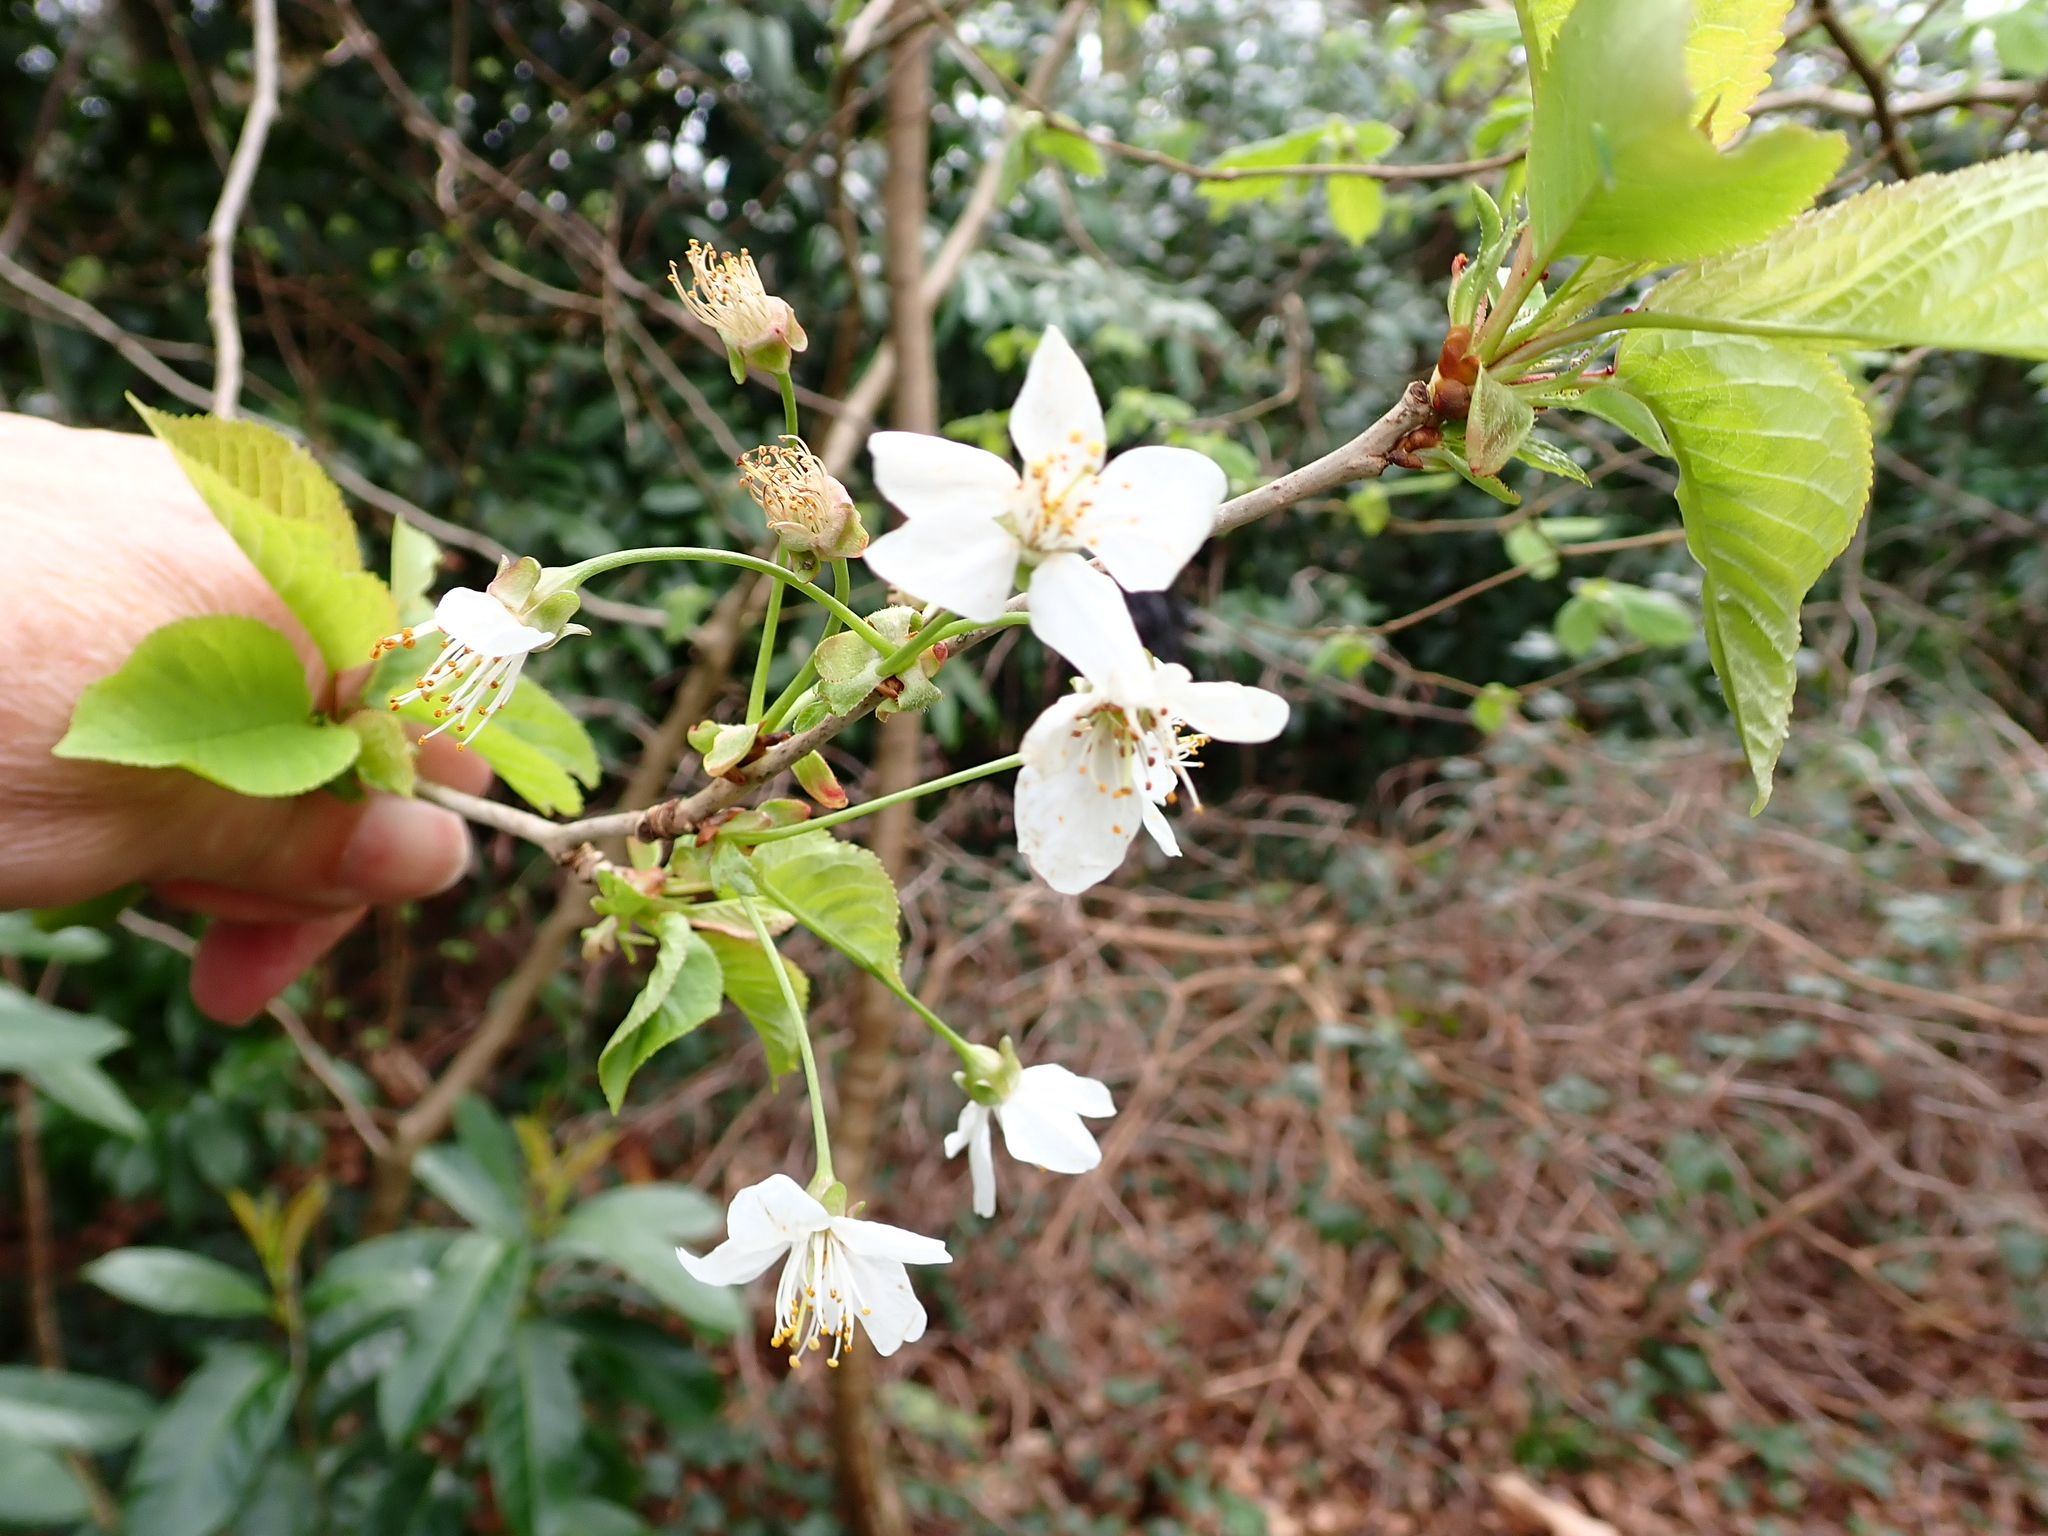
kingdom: Plantae
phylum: Tracheophyta
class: Magnoliopsida
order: Rosales
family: Rosaceae
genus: Prunus
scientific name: Prunus avium
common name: Sweet cherry
